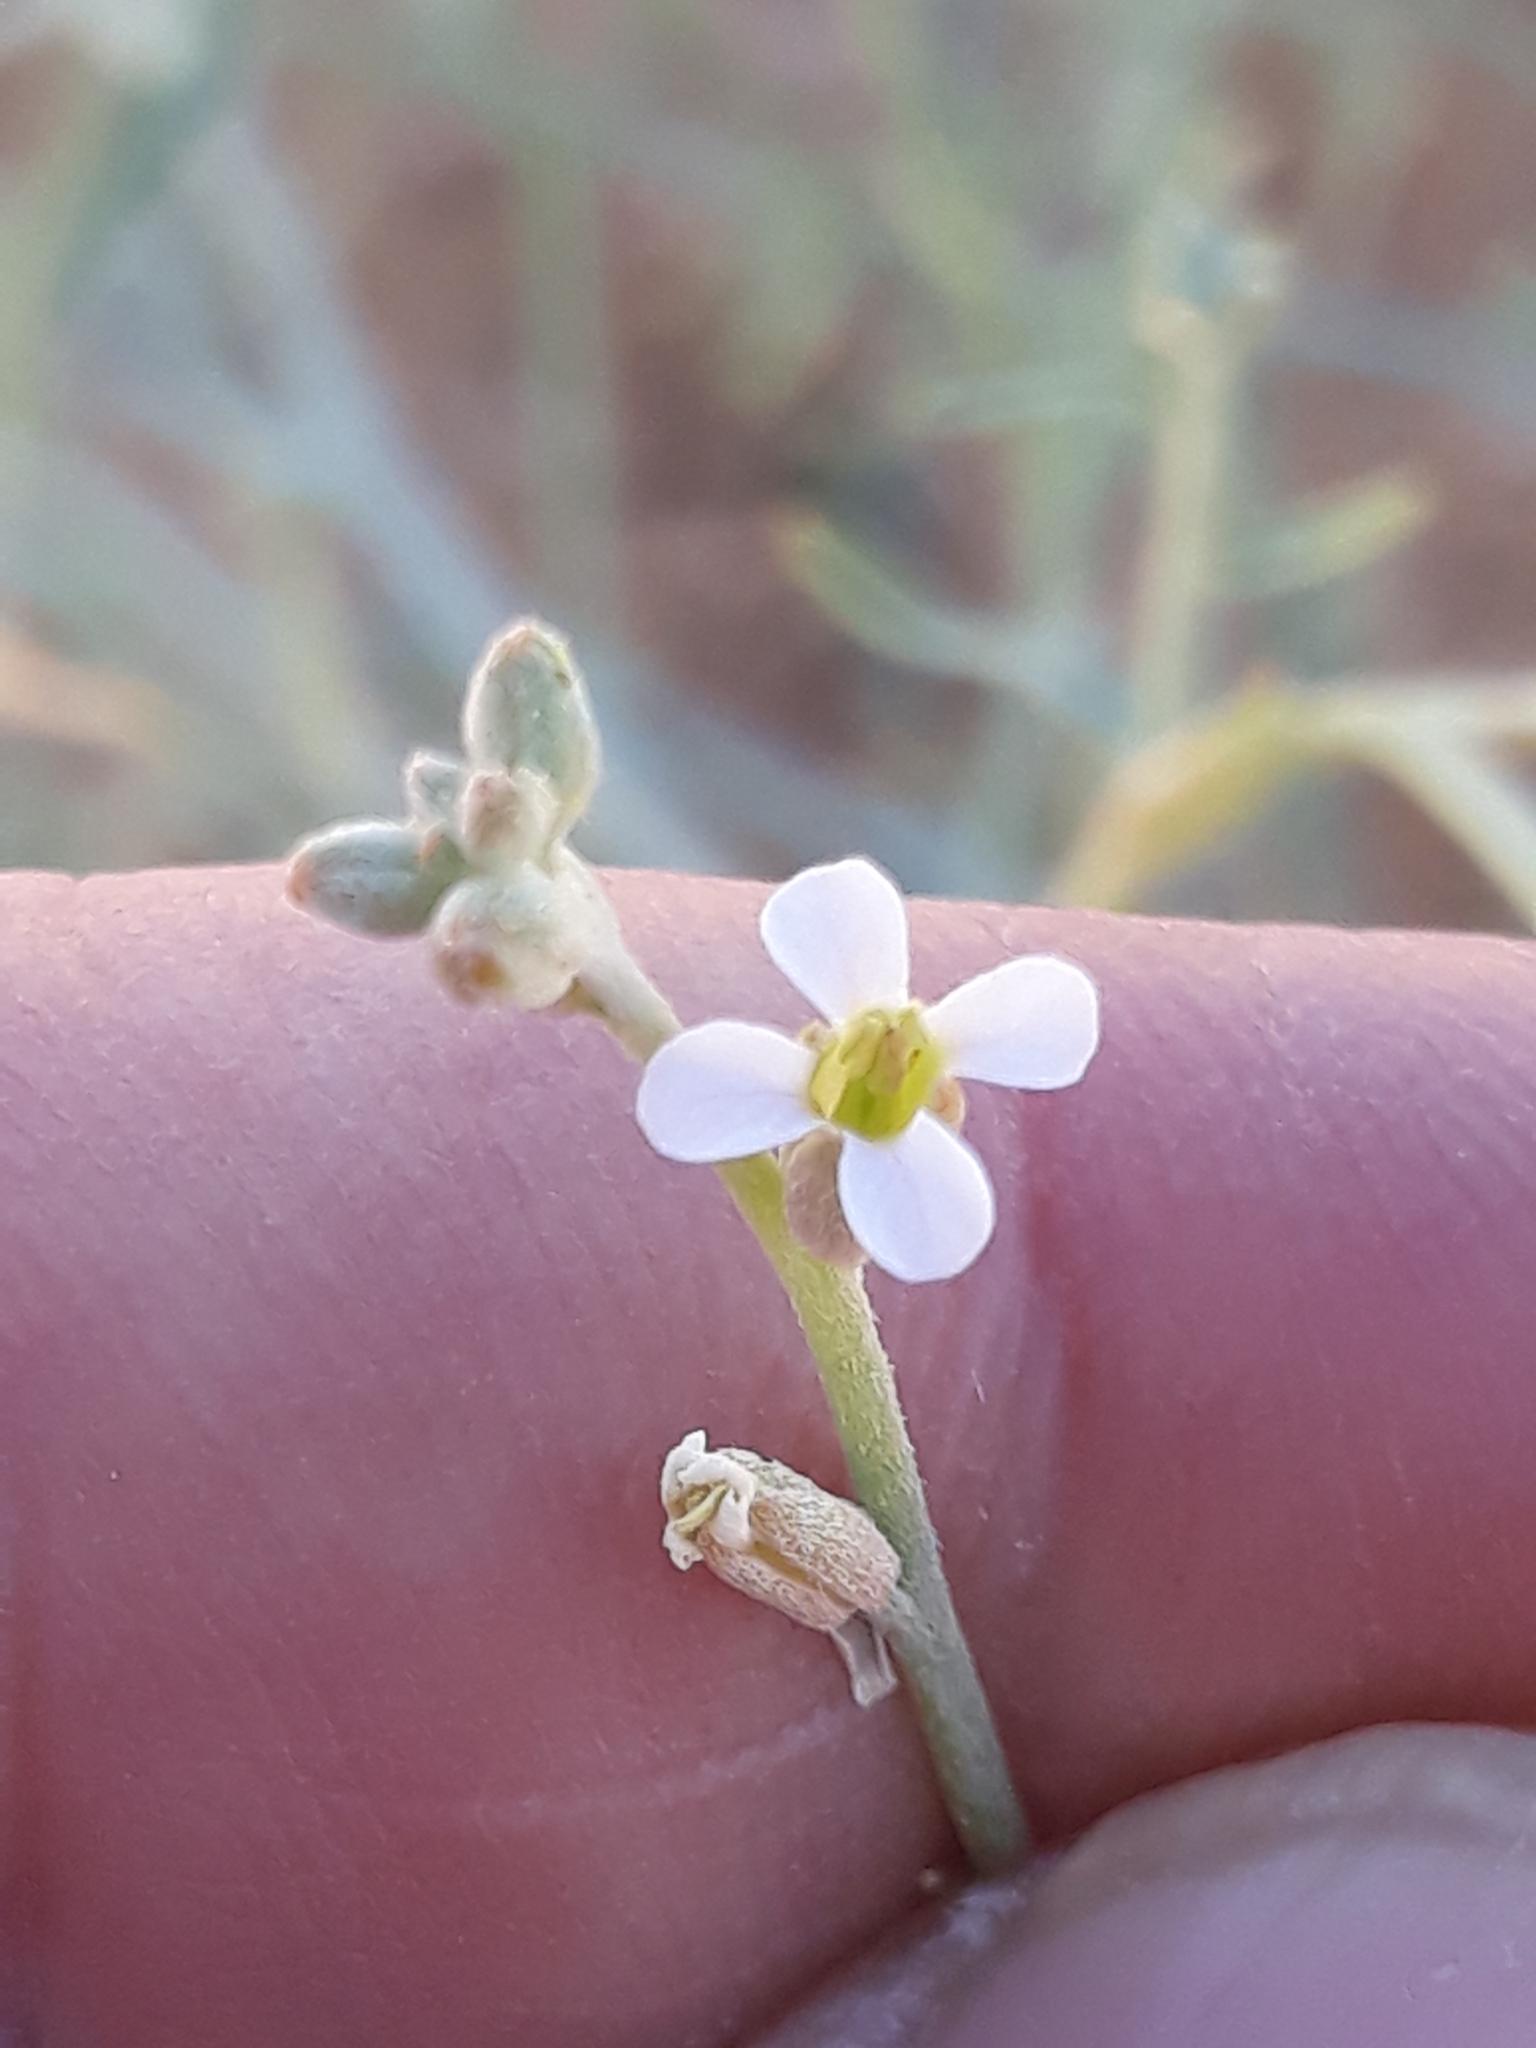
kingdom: Plantae
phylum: Tracheophyta
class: Magnoliopsida
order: Brassicales
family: Brassicaceae
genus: Farsetia
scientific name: Farsetia stylosa
